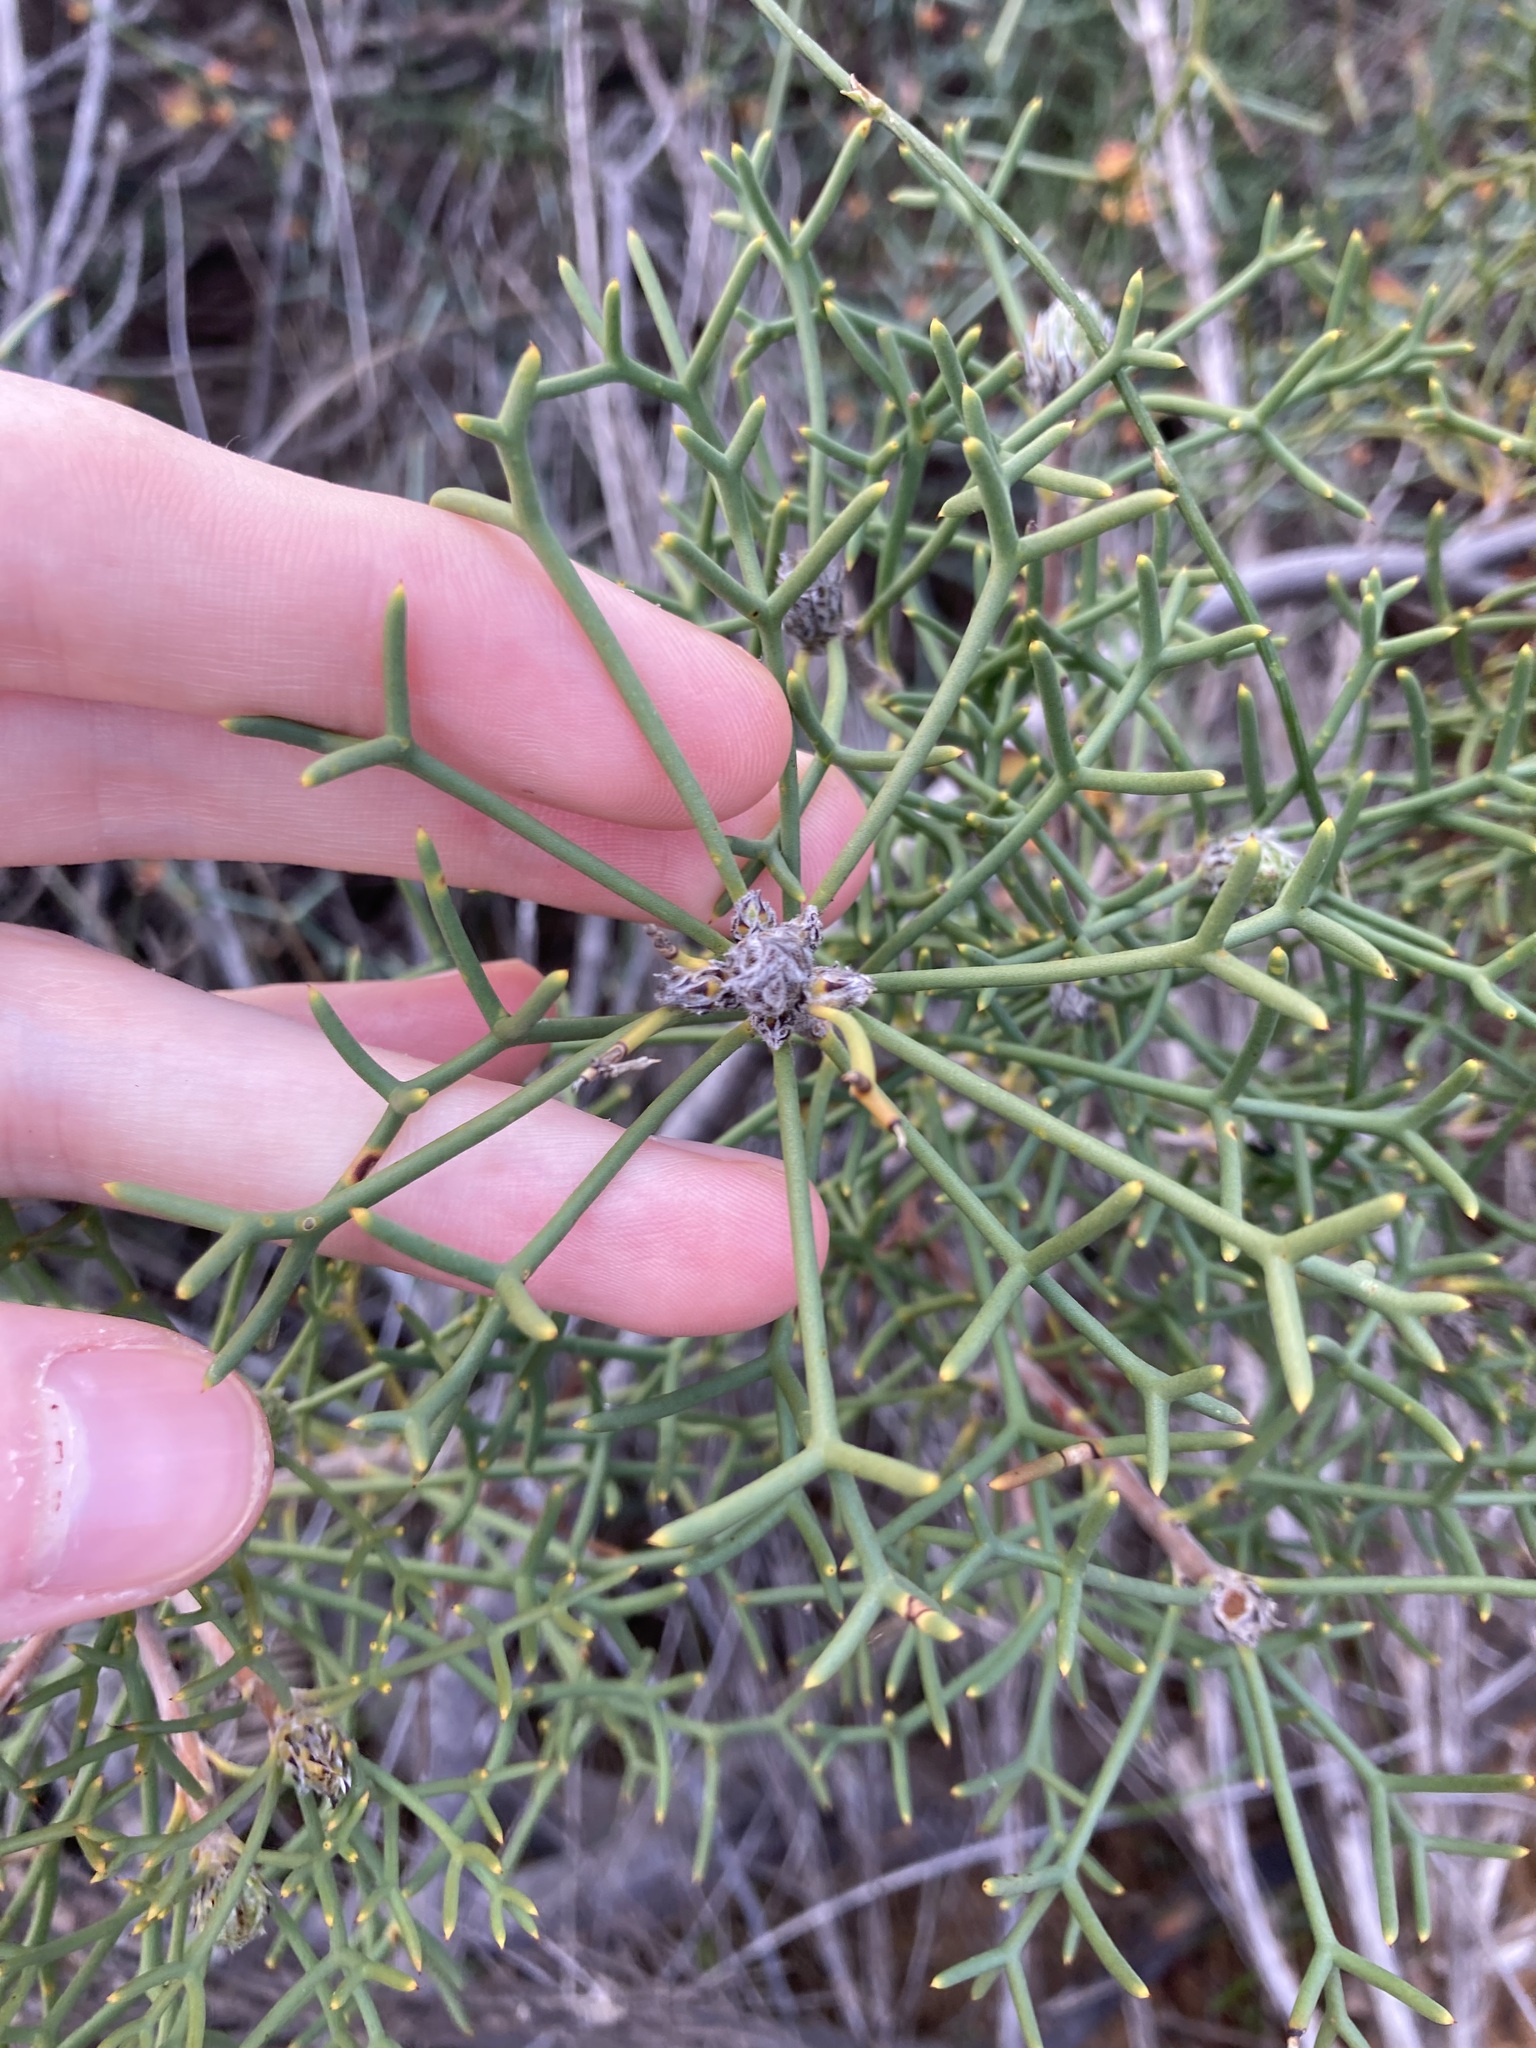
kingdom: Plantae
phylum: Tracheophyta
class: Magnoliopsida
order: Proteales
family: Proteaceae
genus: Petrophile
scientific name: Petrophile conifera
